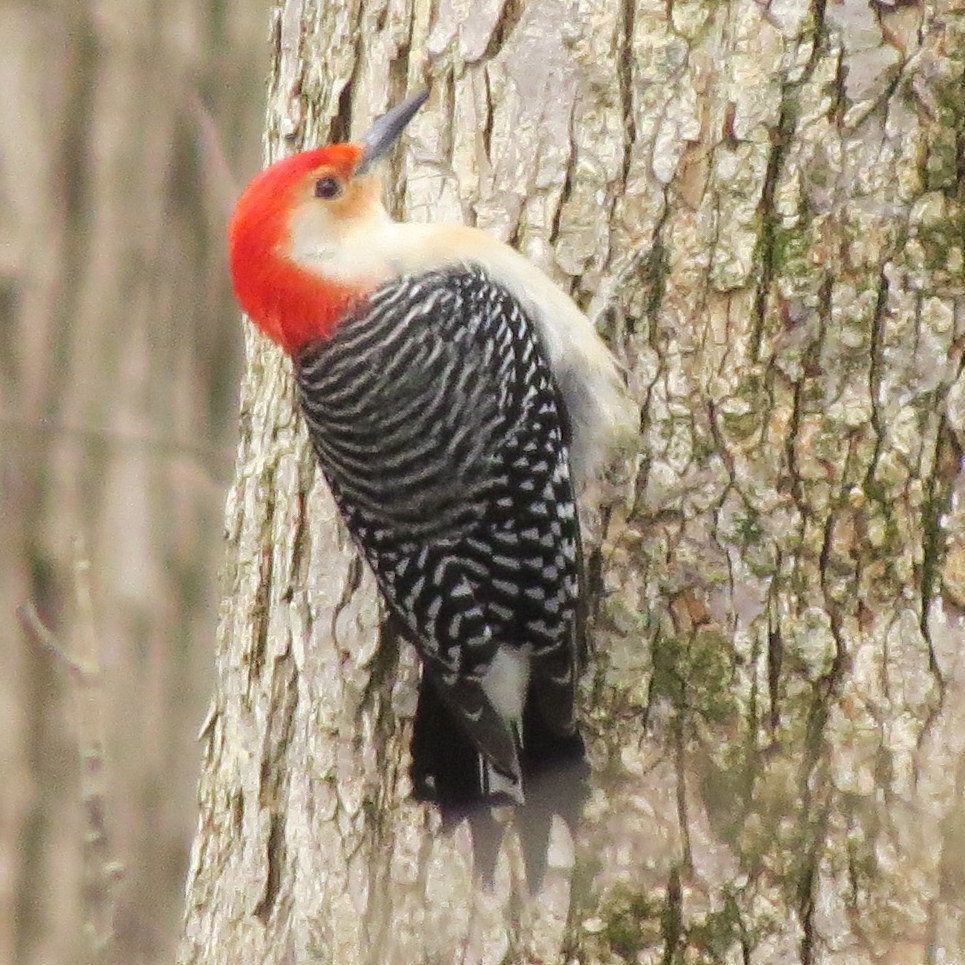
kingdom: Animalia
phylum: Chordata
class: Aves
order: Piciformes
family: Picidae
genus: Melanerpes
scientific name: Melanerpes carolinus
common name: Red-bellied woodpecker
